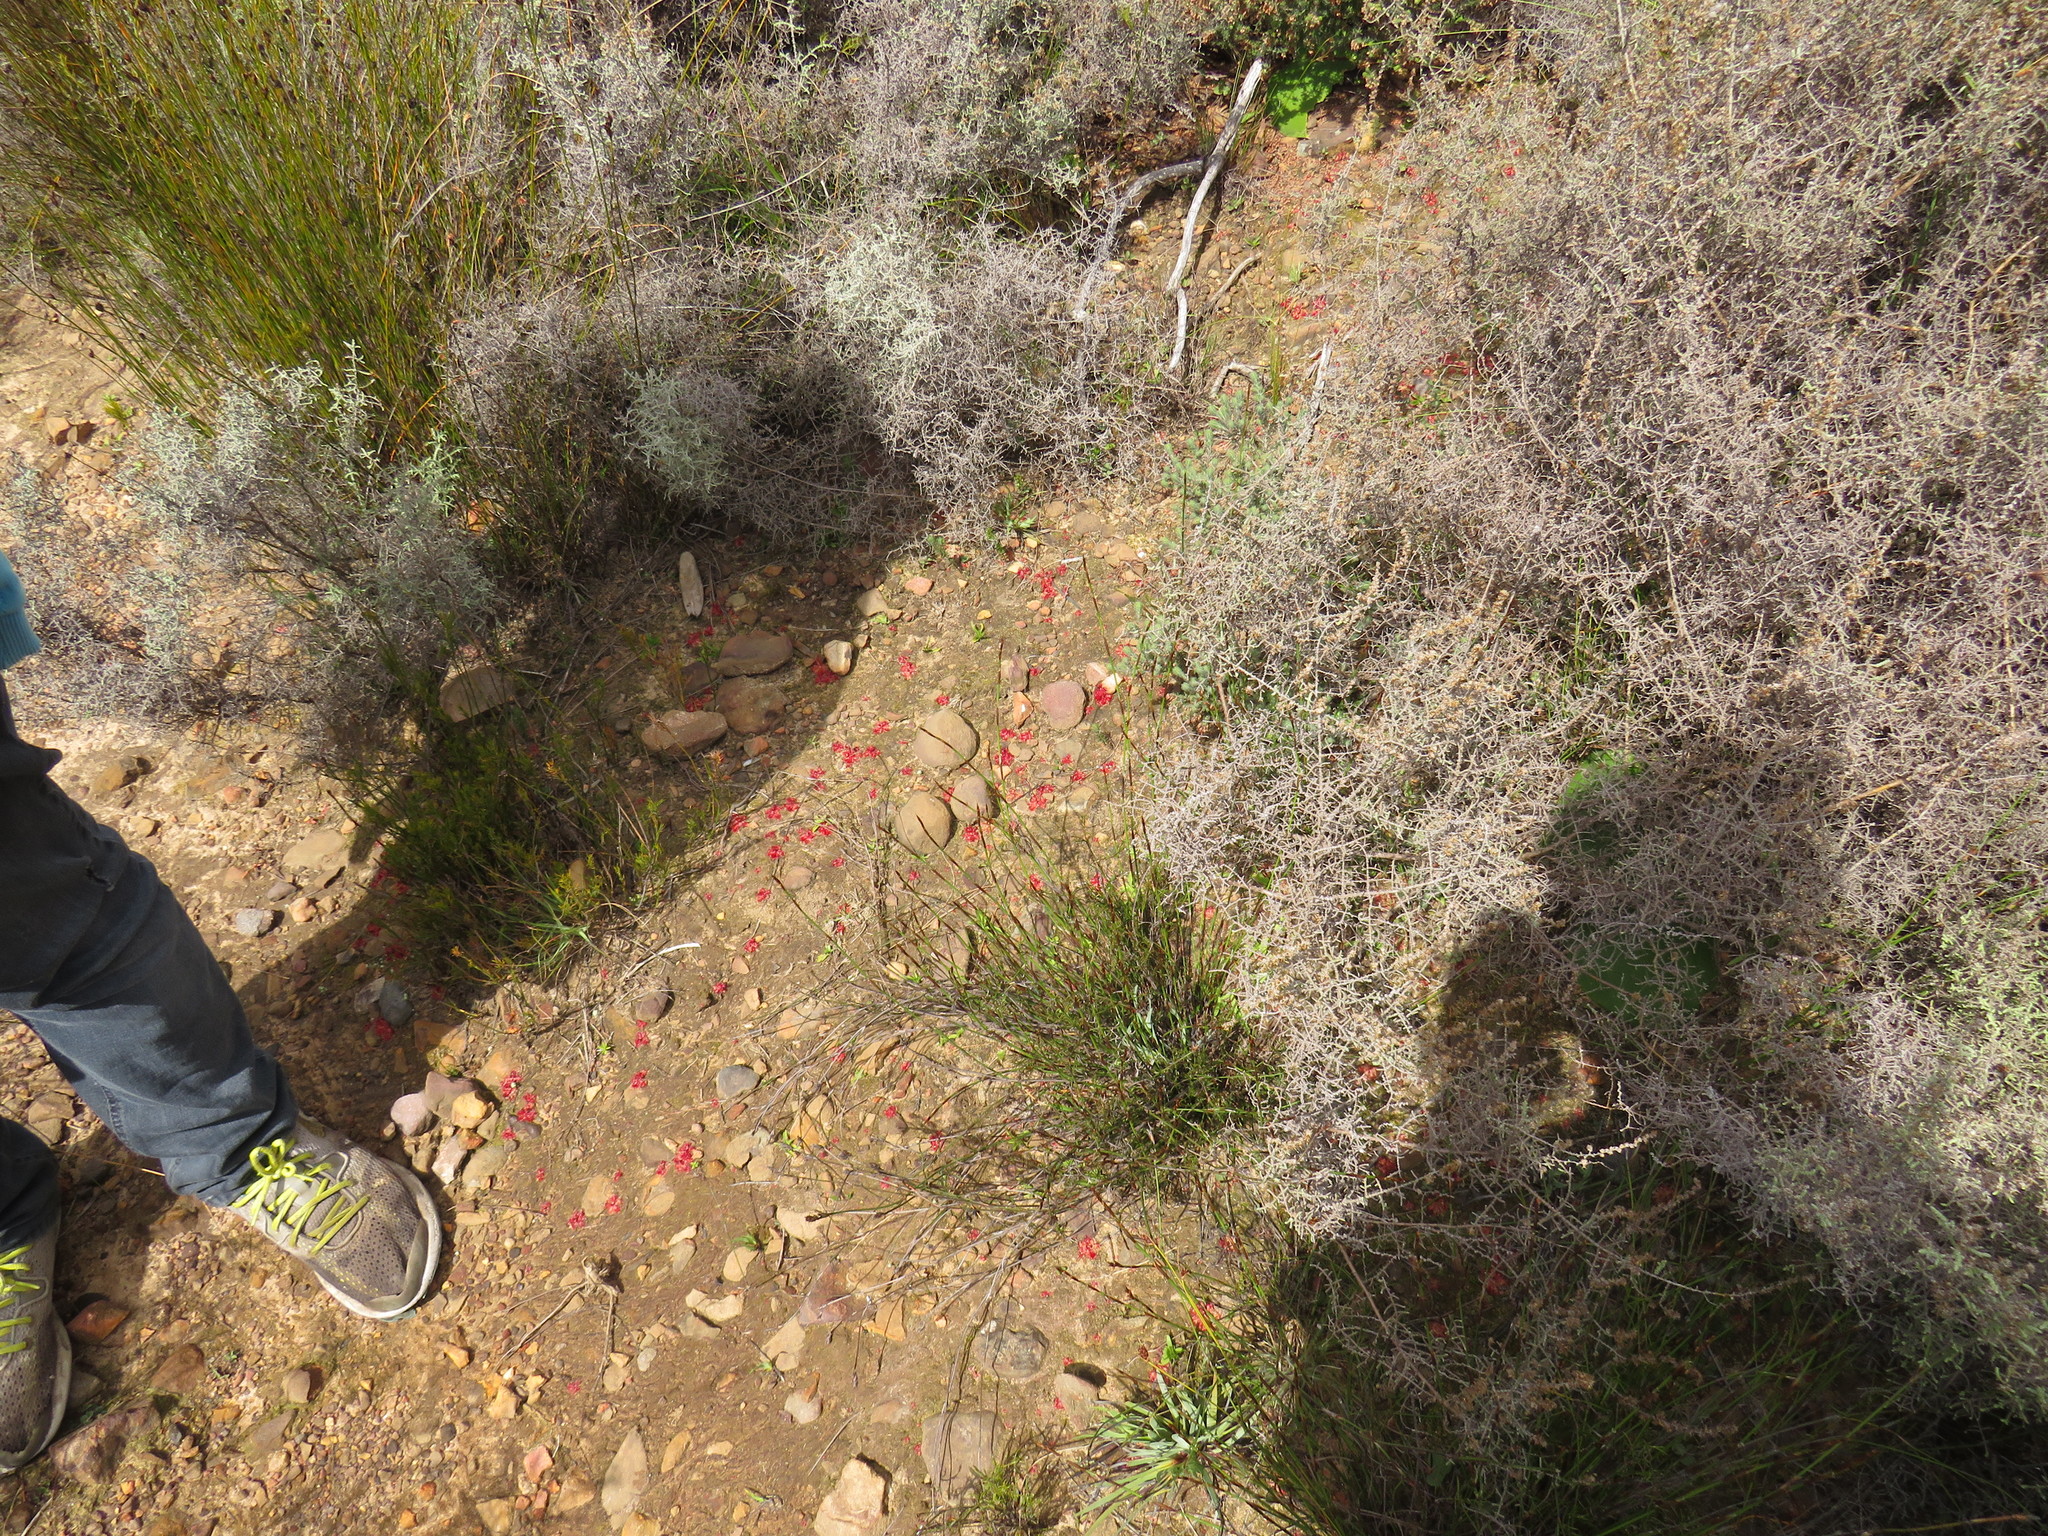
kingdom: Plantae
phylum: Tracheophyta
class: Magnoliopsida
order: Caryophyllales
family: Droseraceae
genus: Drosera
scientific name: Drosera trinervia
